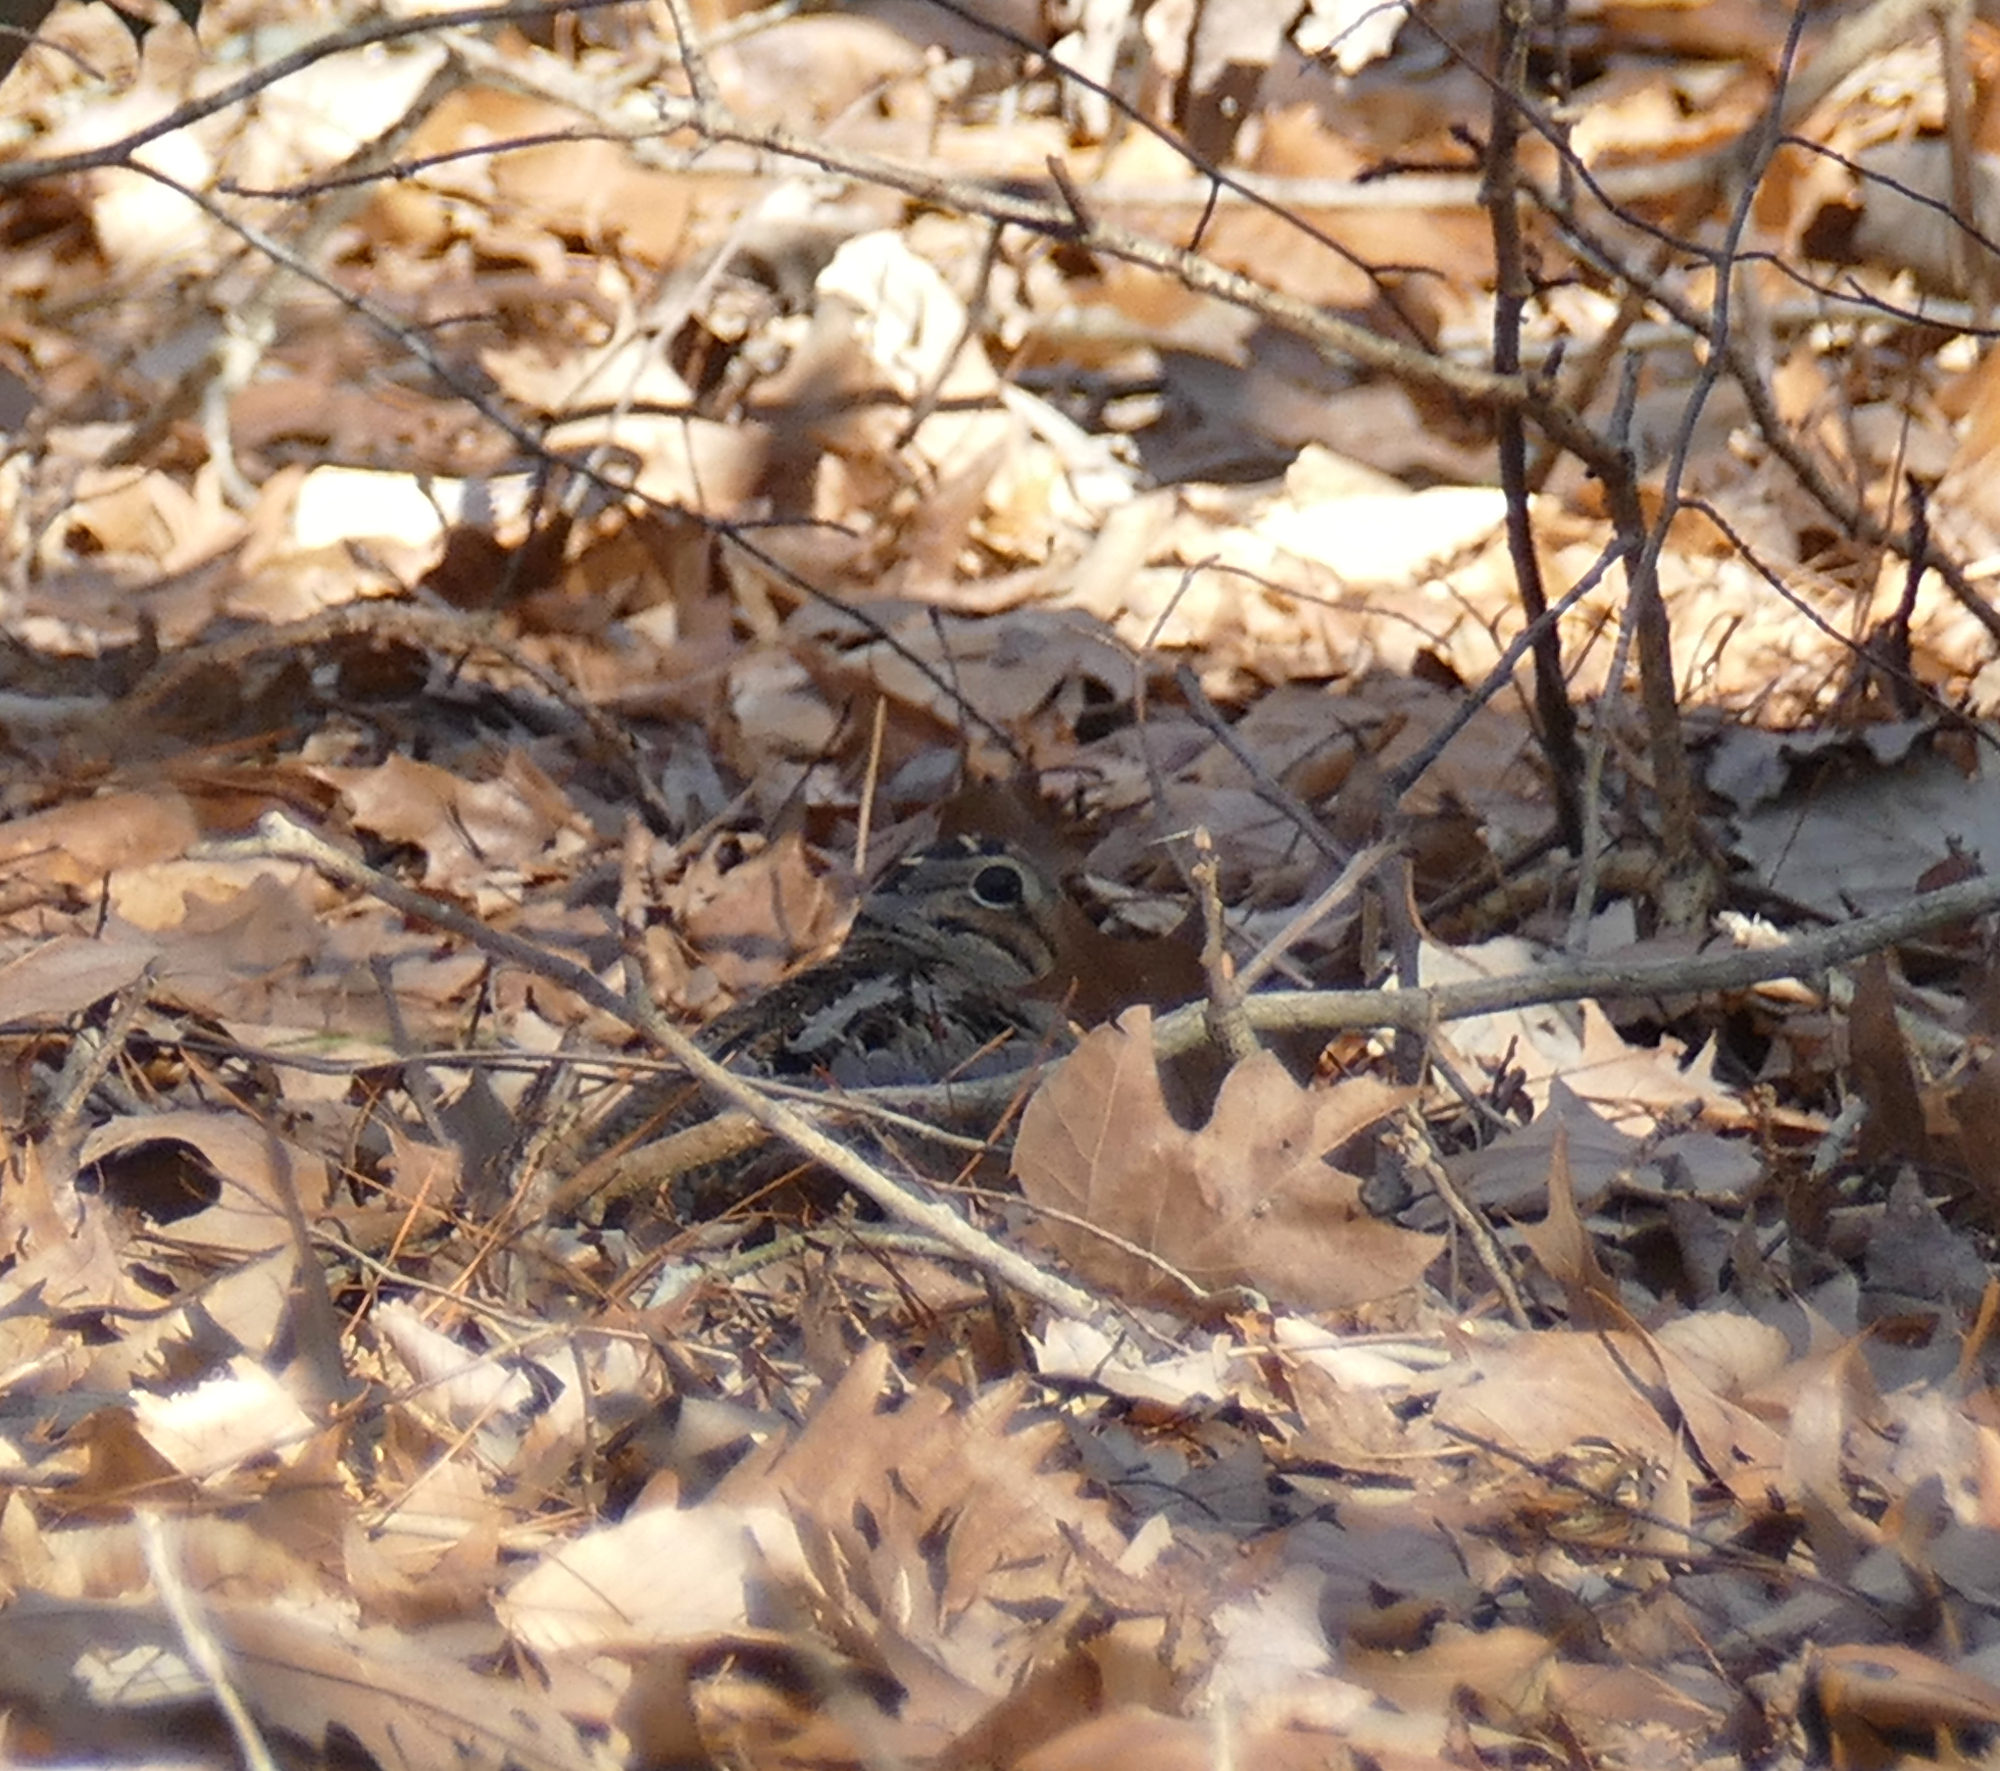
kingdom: Animalia
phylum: Chordata
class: Aves
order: Charadriiformes
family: Scolopacidae
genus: Scolopax
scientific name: Scolopax minor
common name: American woodcock
